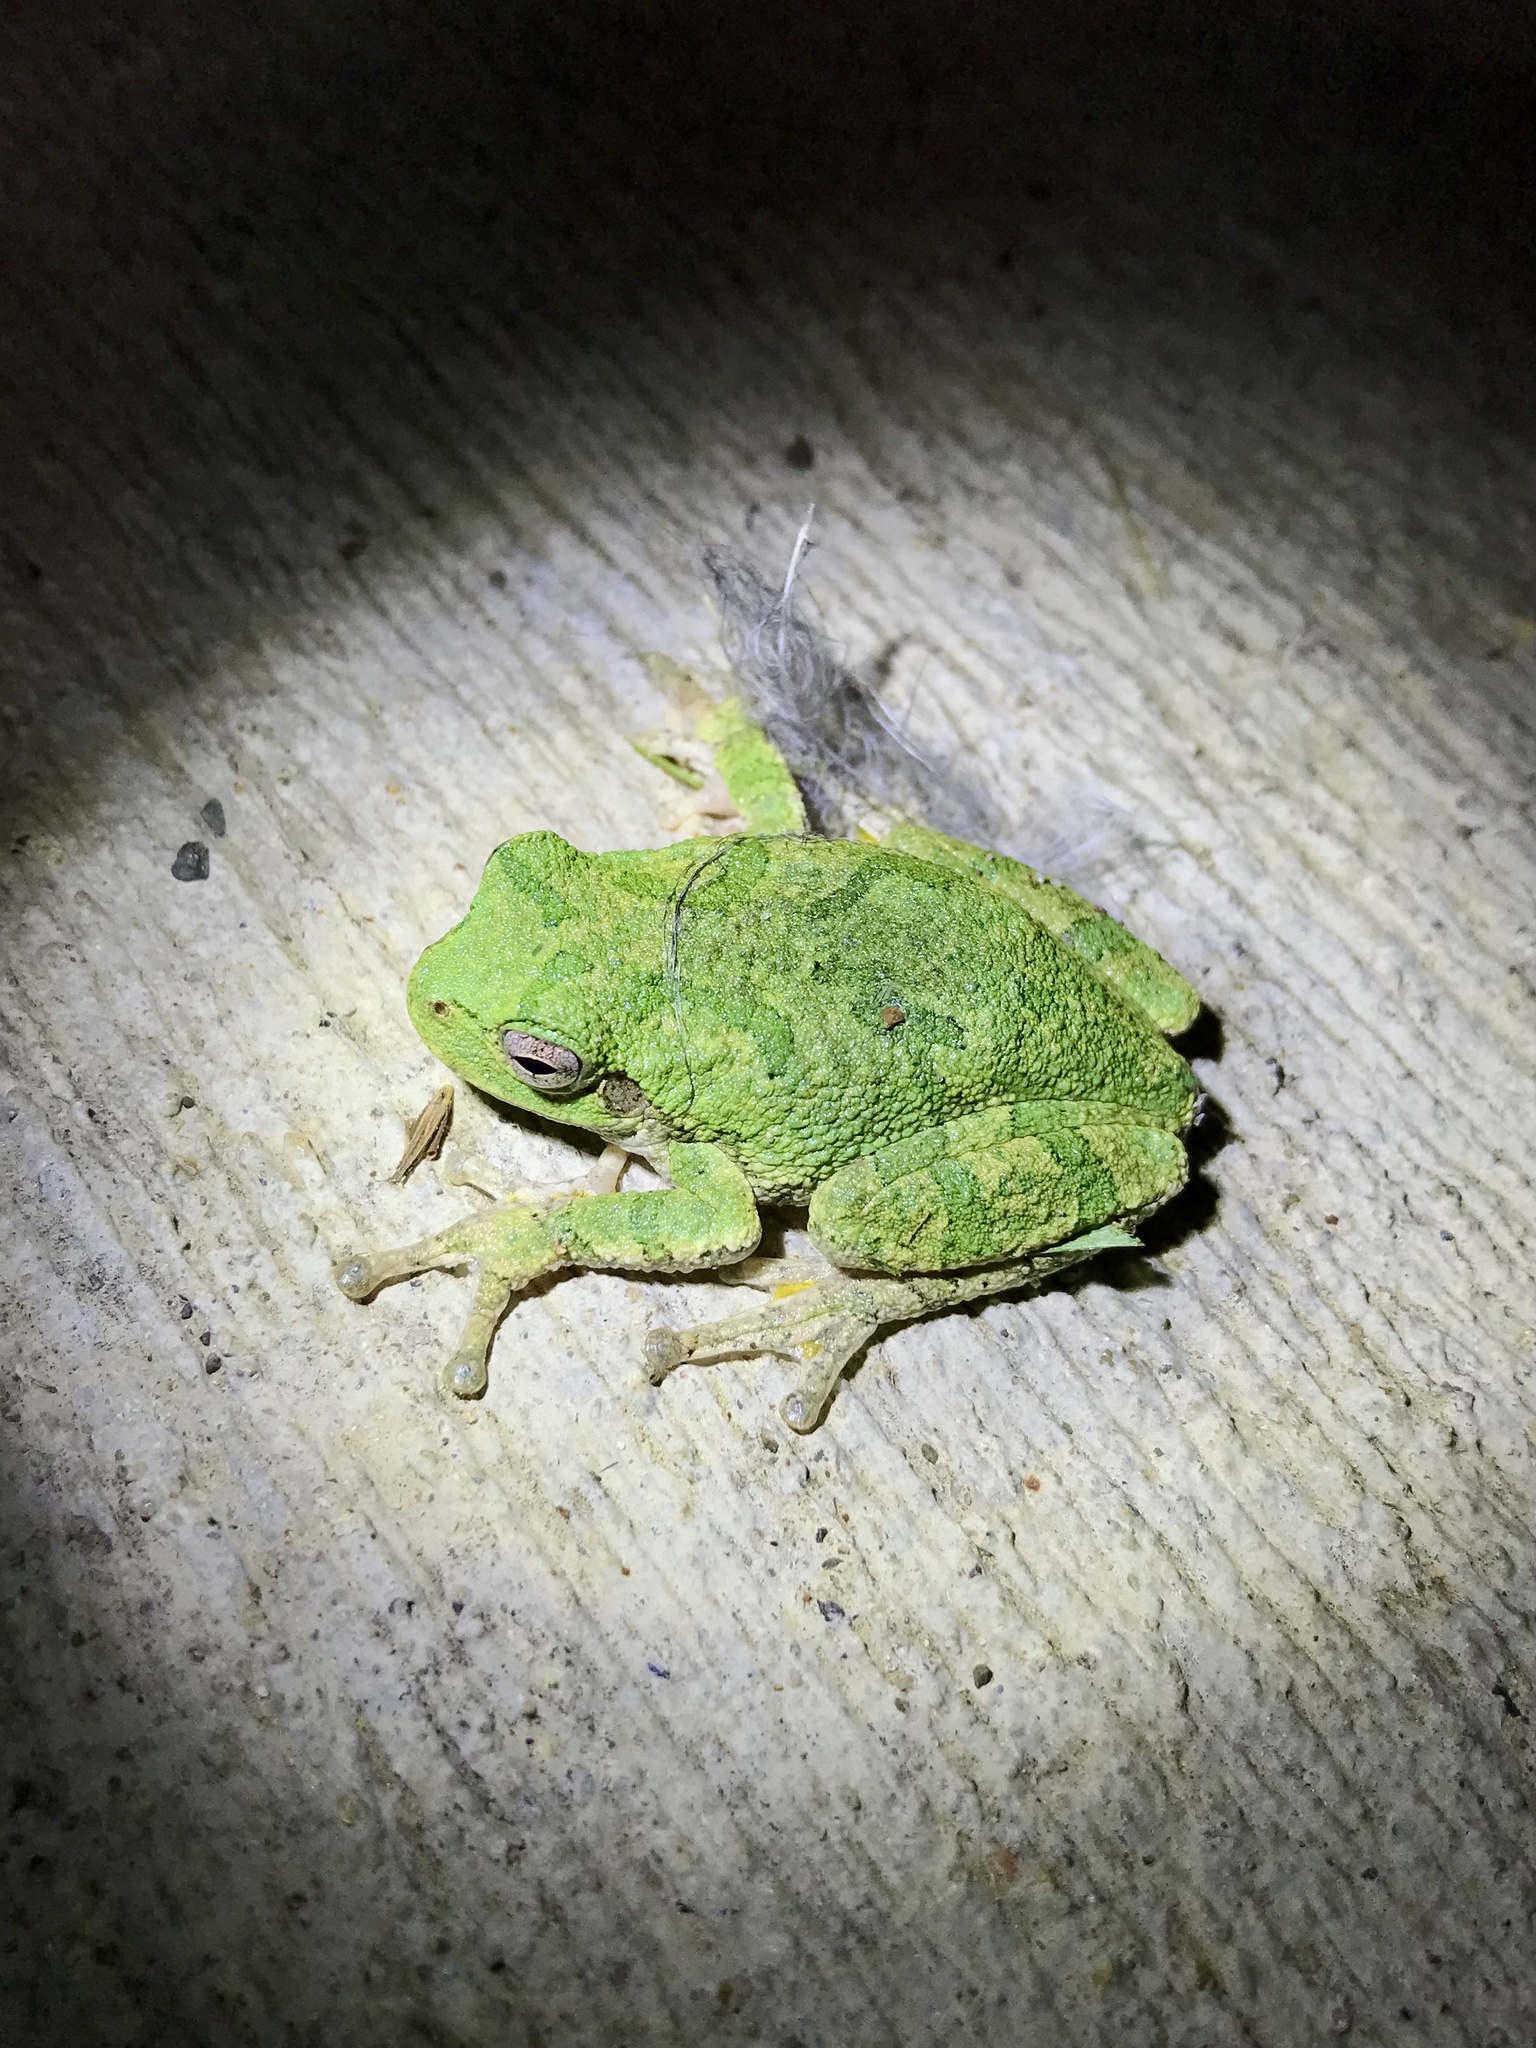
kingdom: Animalia
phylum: Chordata
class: Amphibia
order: Anura
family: Hylidae
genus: Hyla
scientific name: Hyla
